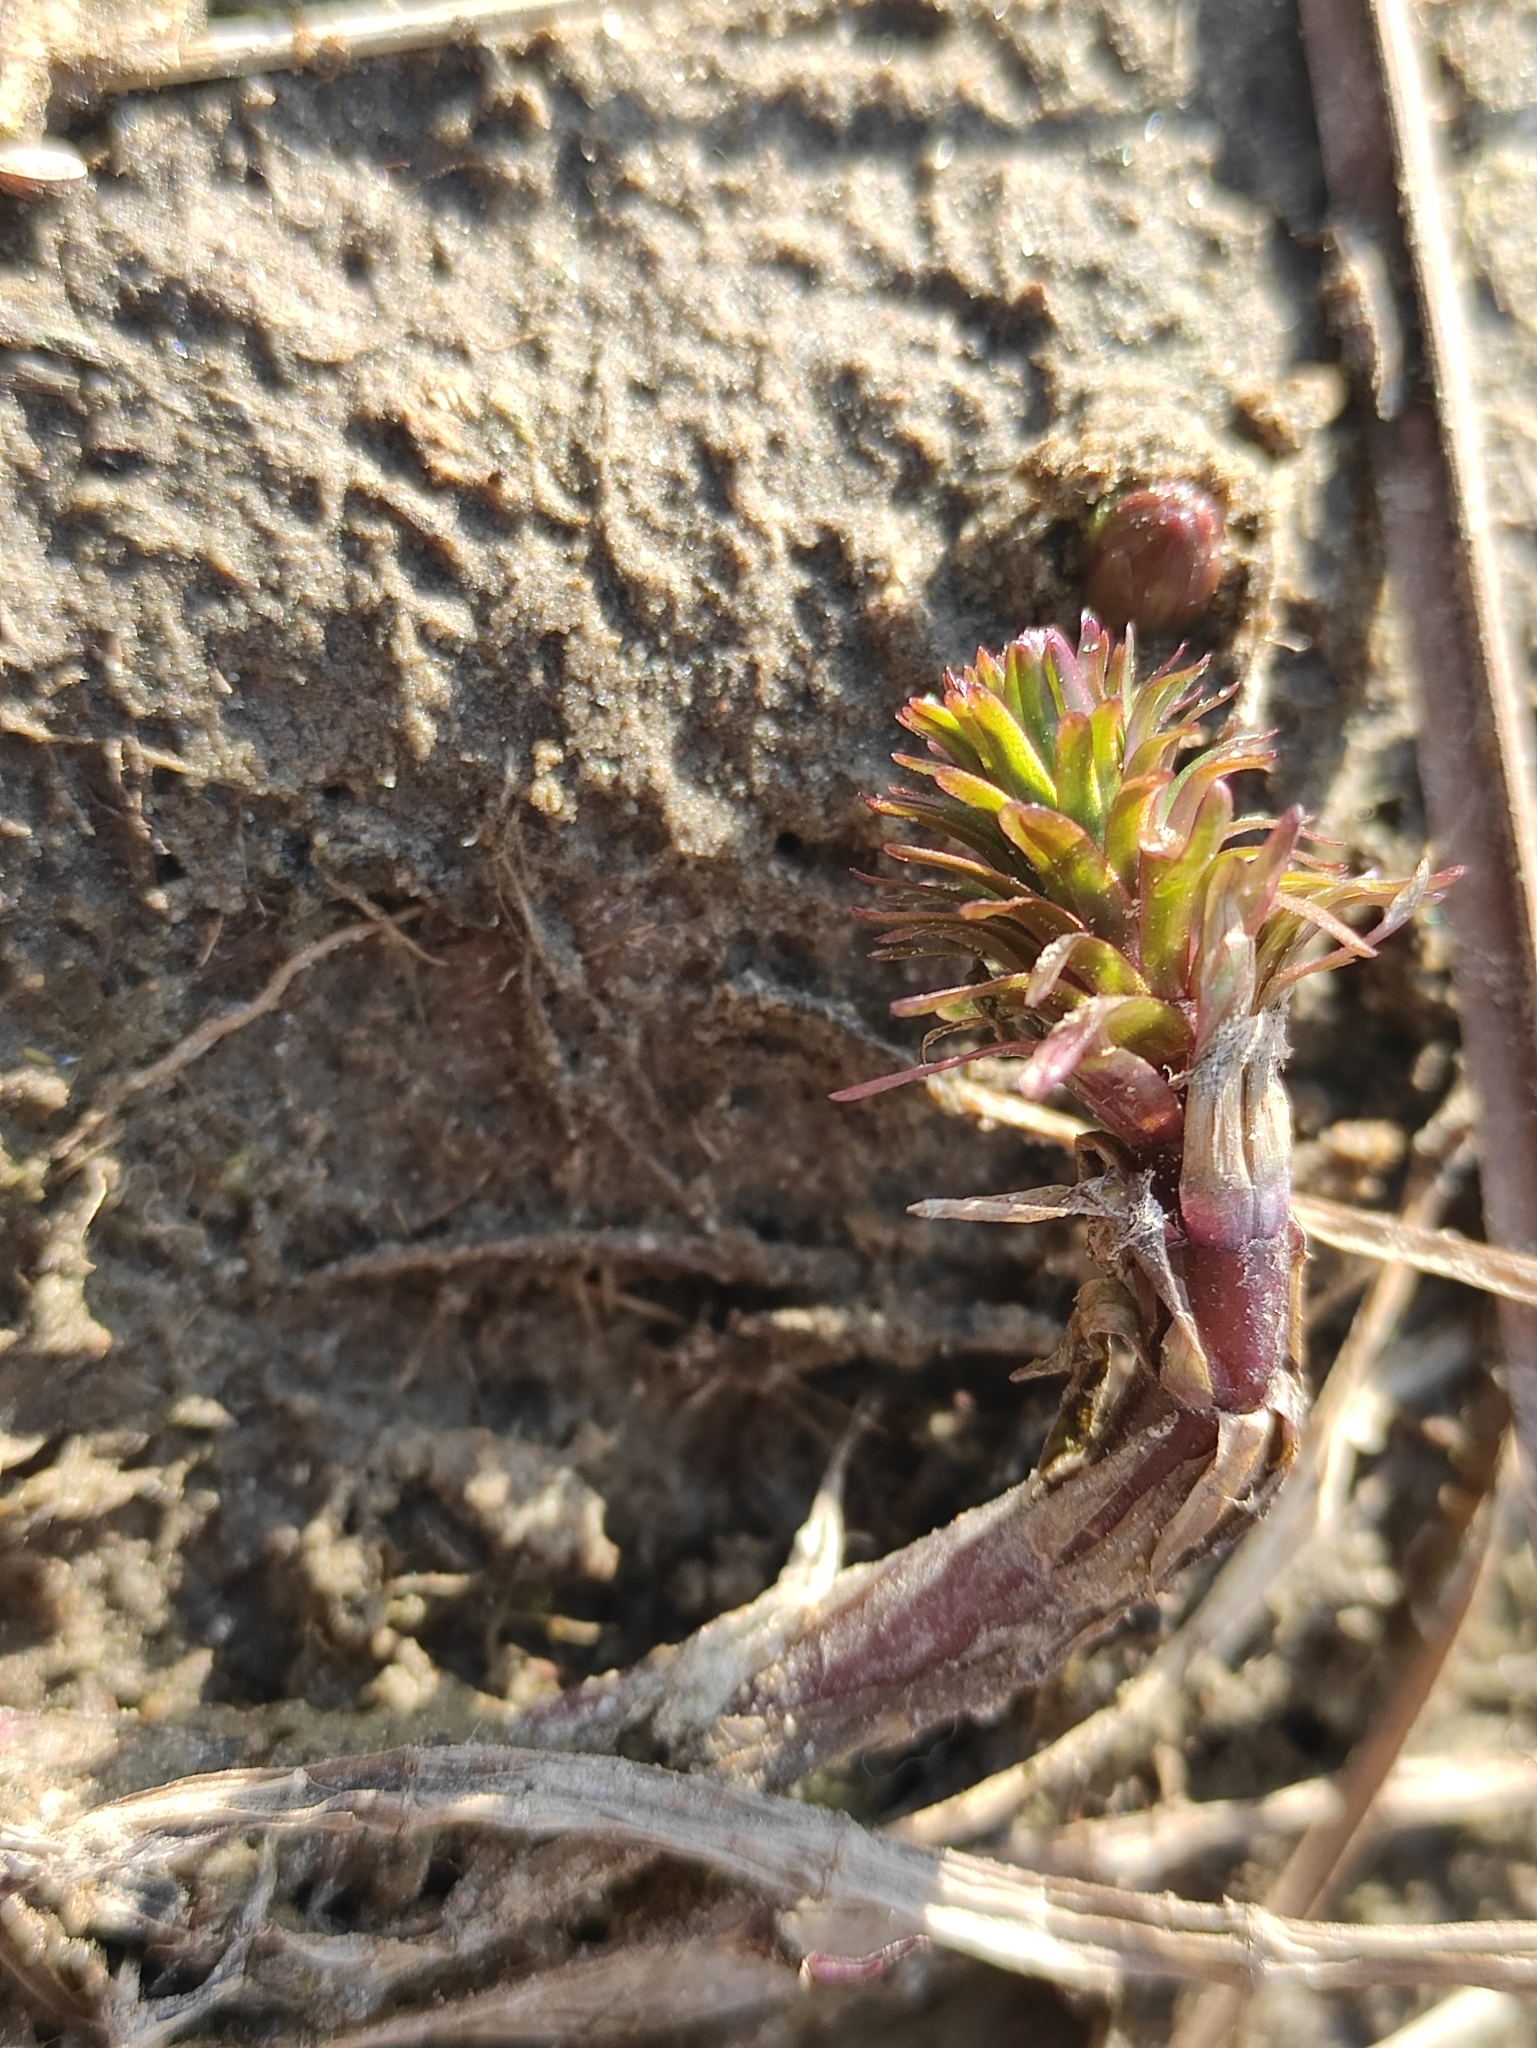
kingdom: Plantae
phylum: Tracheophyta
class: Magnoliopsida
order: Lamiales
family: Plantaginaceae
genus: Hippuris
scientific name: Hippuris vulgaris
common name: Mare's-tail
